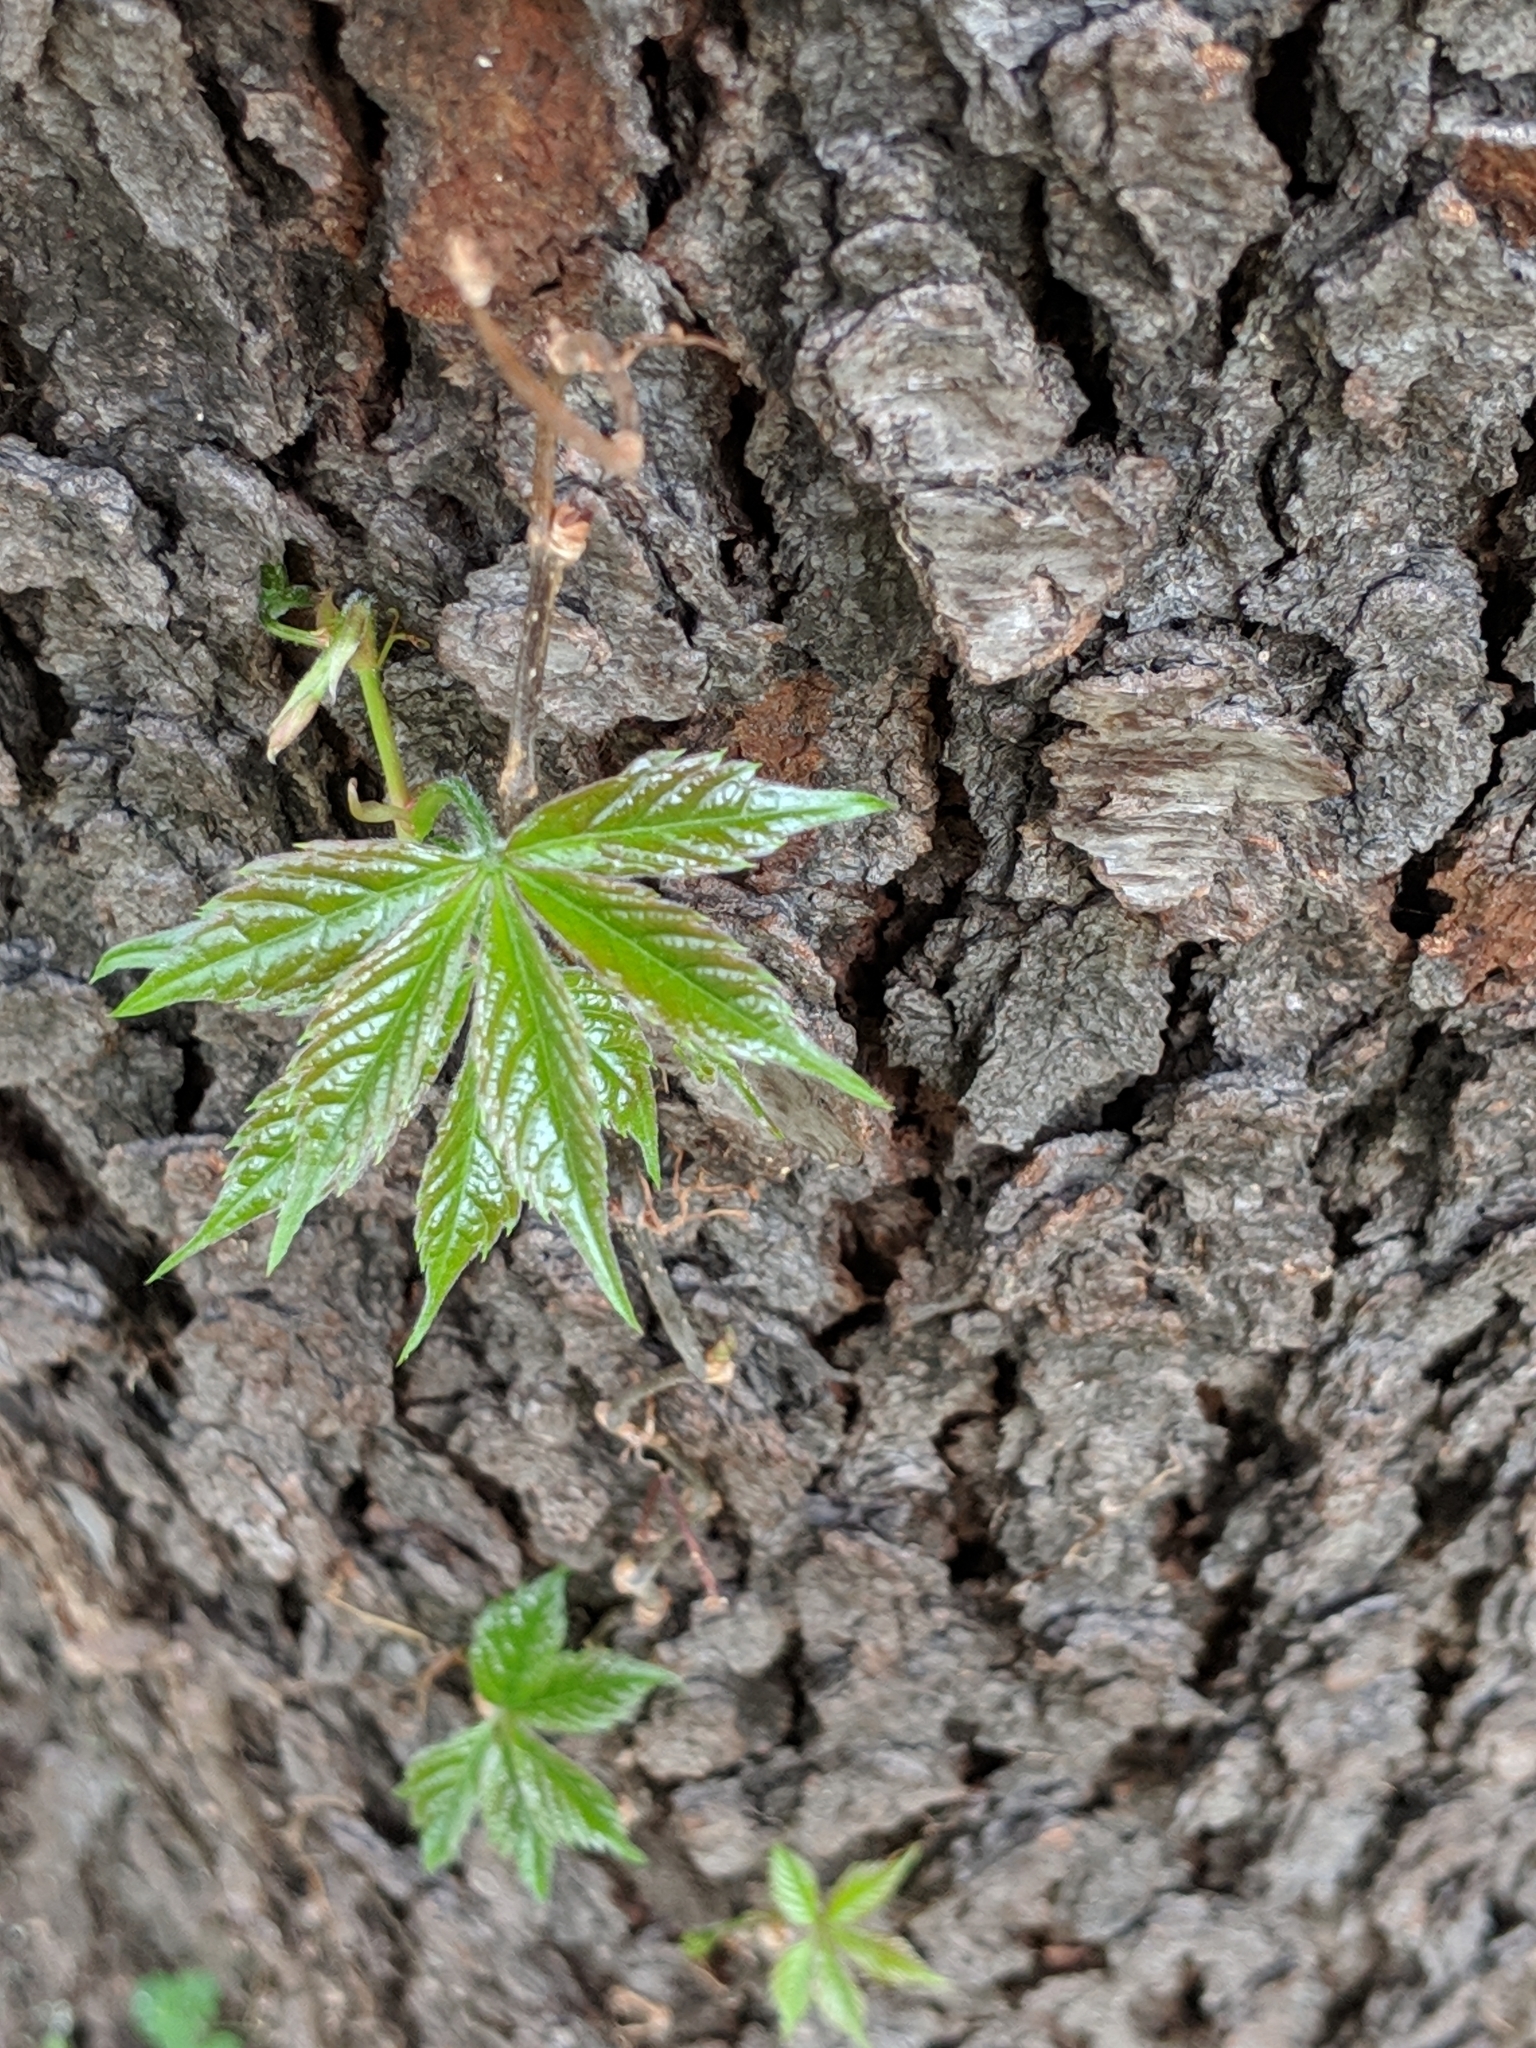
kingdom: Plantae
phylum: Tracheophyta
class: Magnoliopsida
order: Vitales
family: Vitaceae
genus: Parthenocissus
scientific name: Parthenocissus quinquefolia
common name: Virginia-creeper
